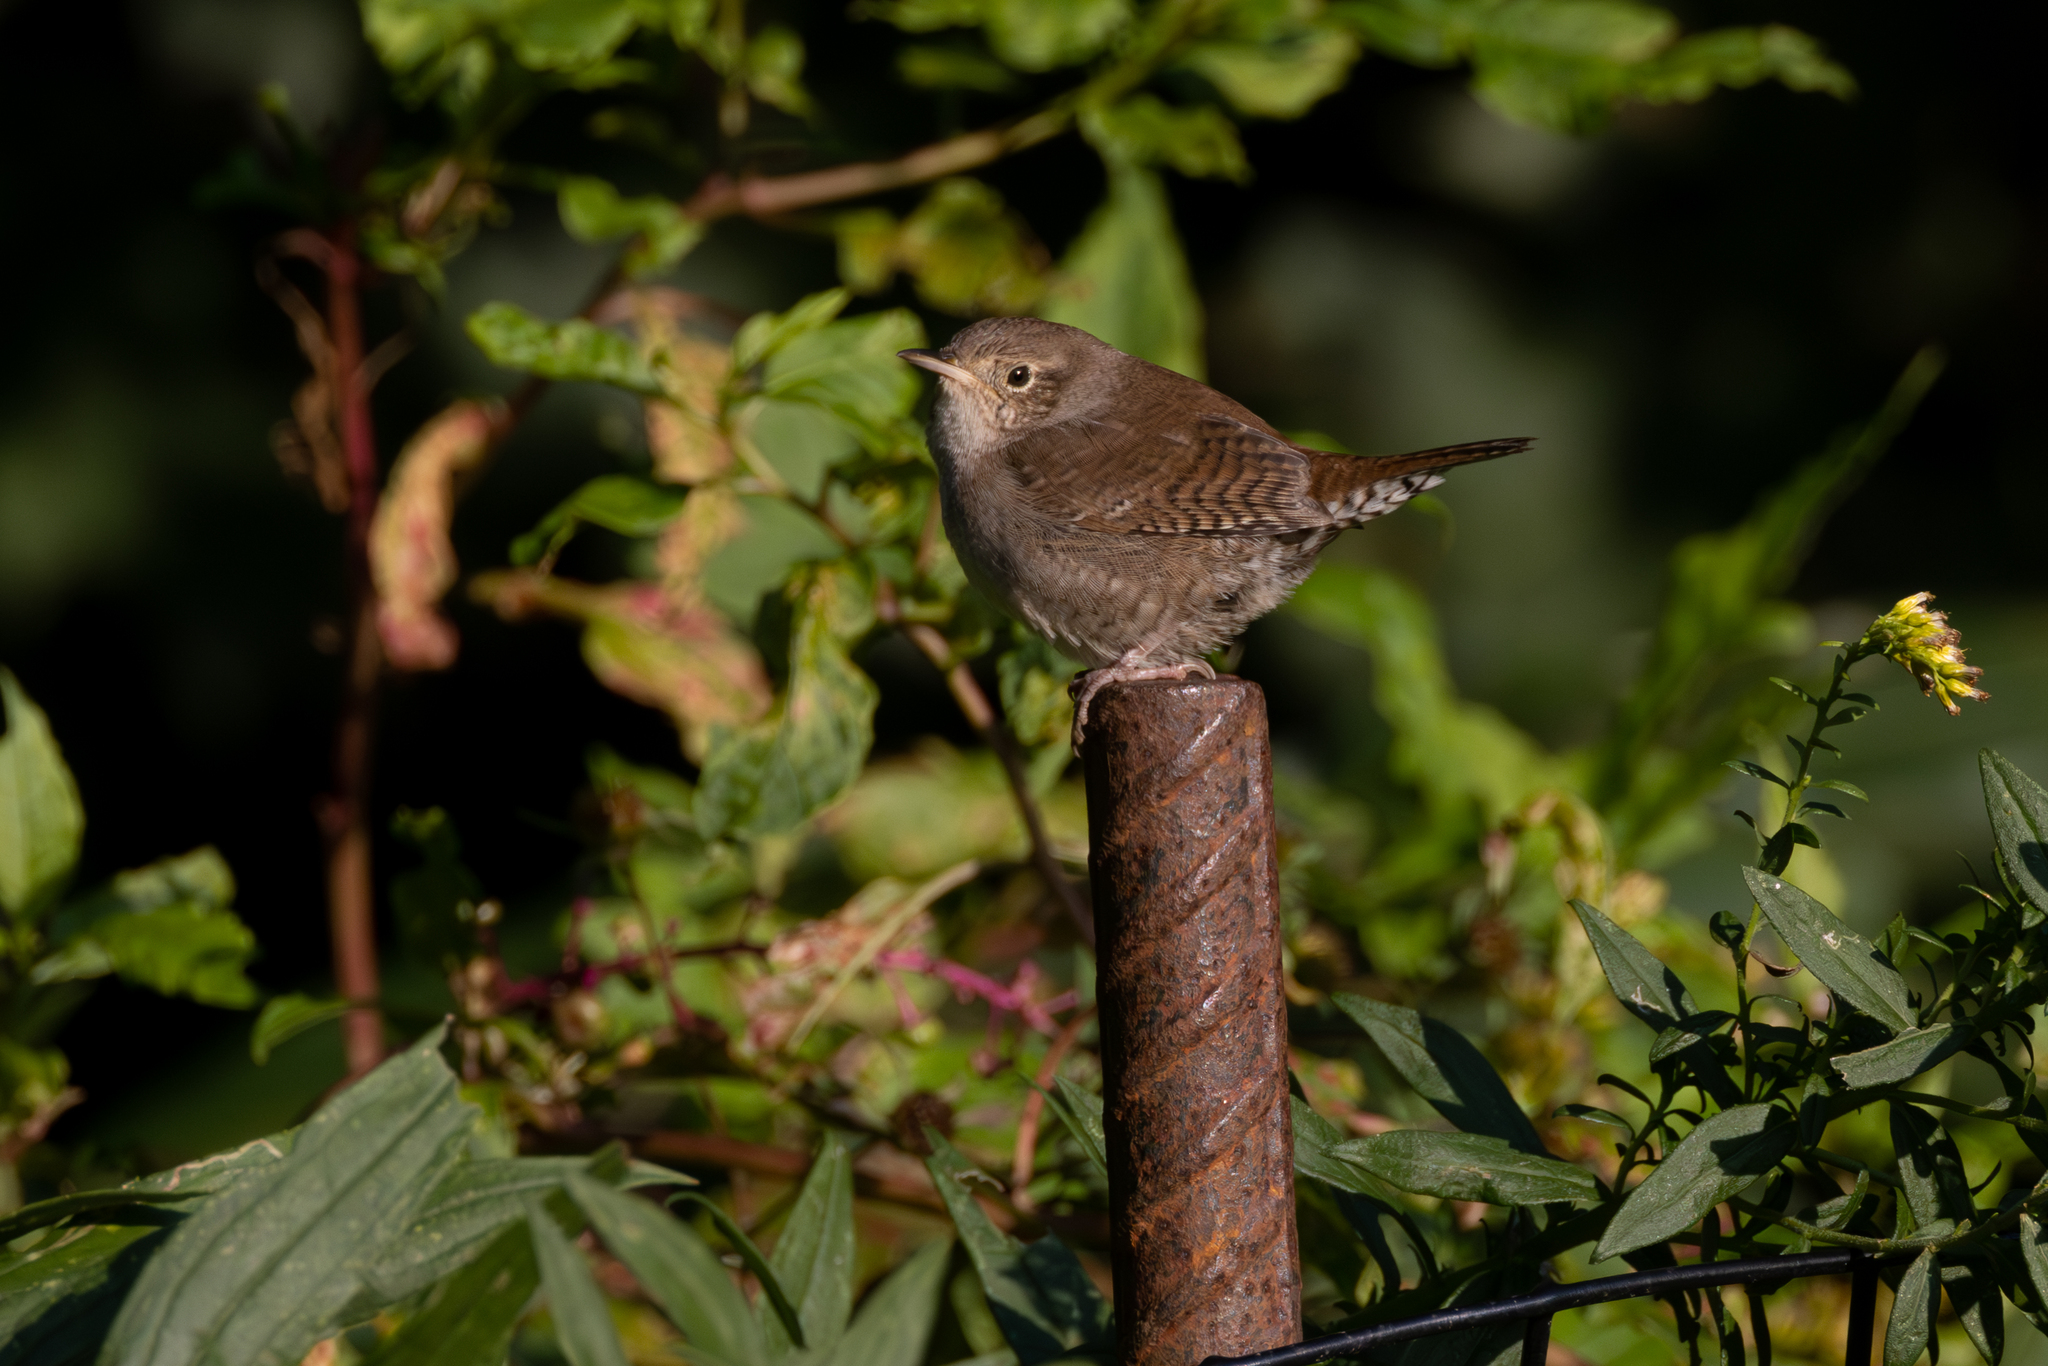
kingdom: Animalia
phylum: Chordata
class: Aves
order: Passeriformes
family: Troglodytidae
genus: Troglodytes
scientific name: Troglodytes aedon
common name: House wren
